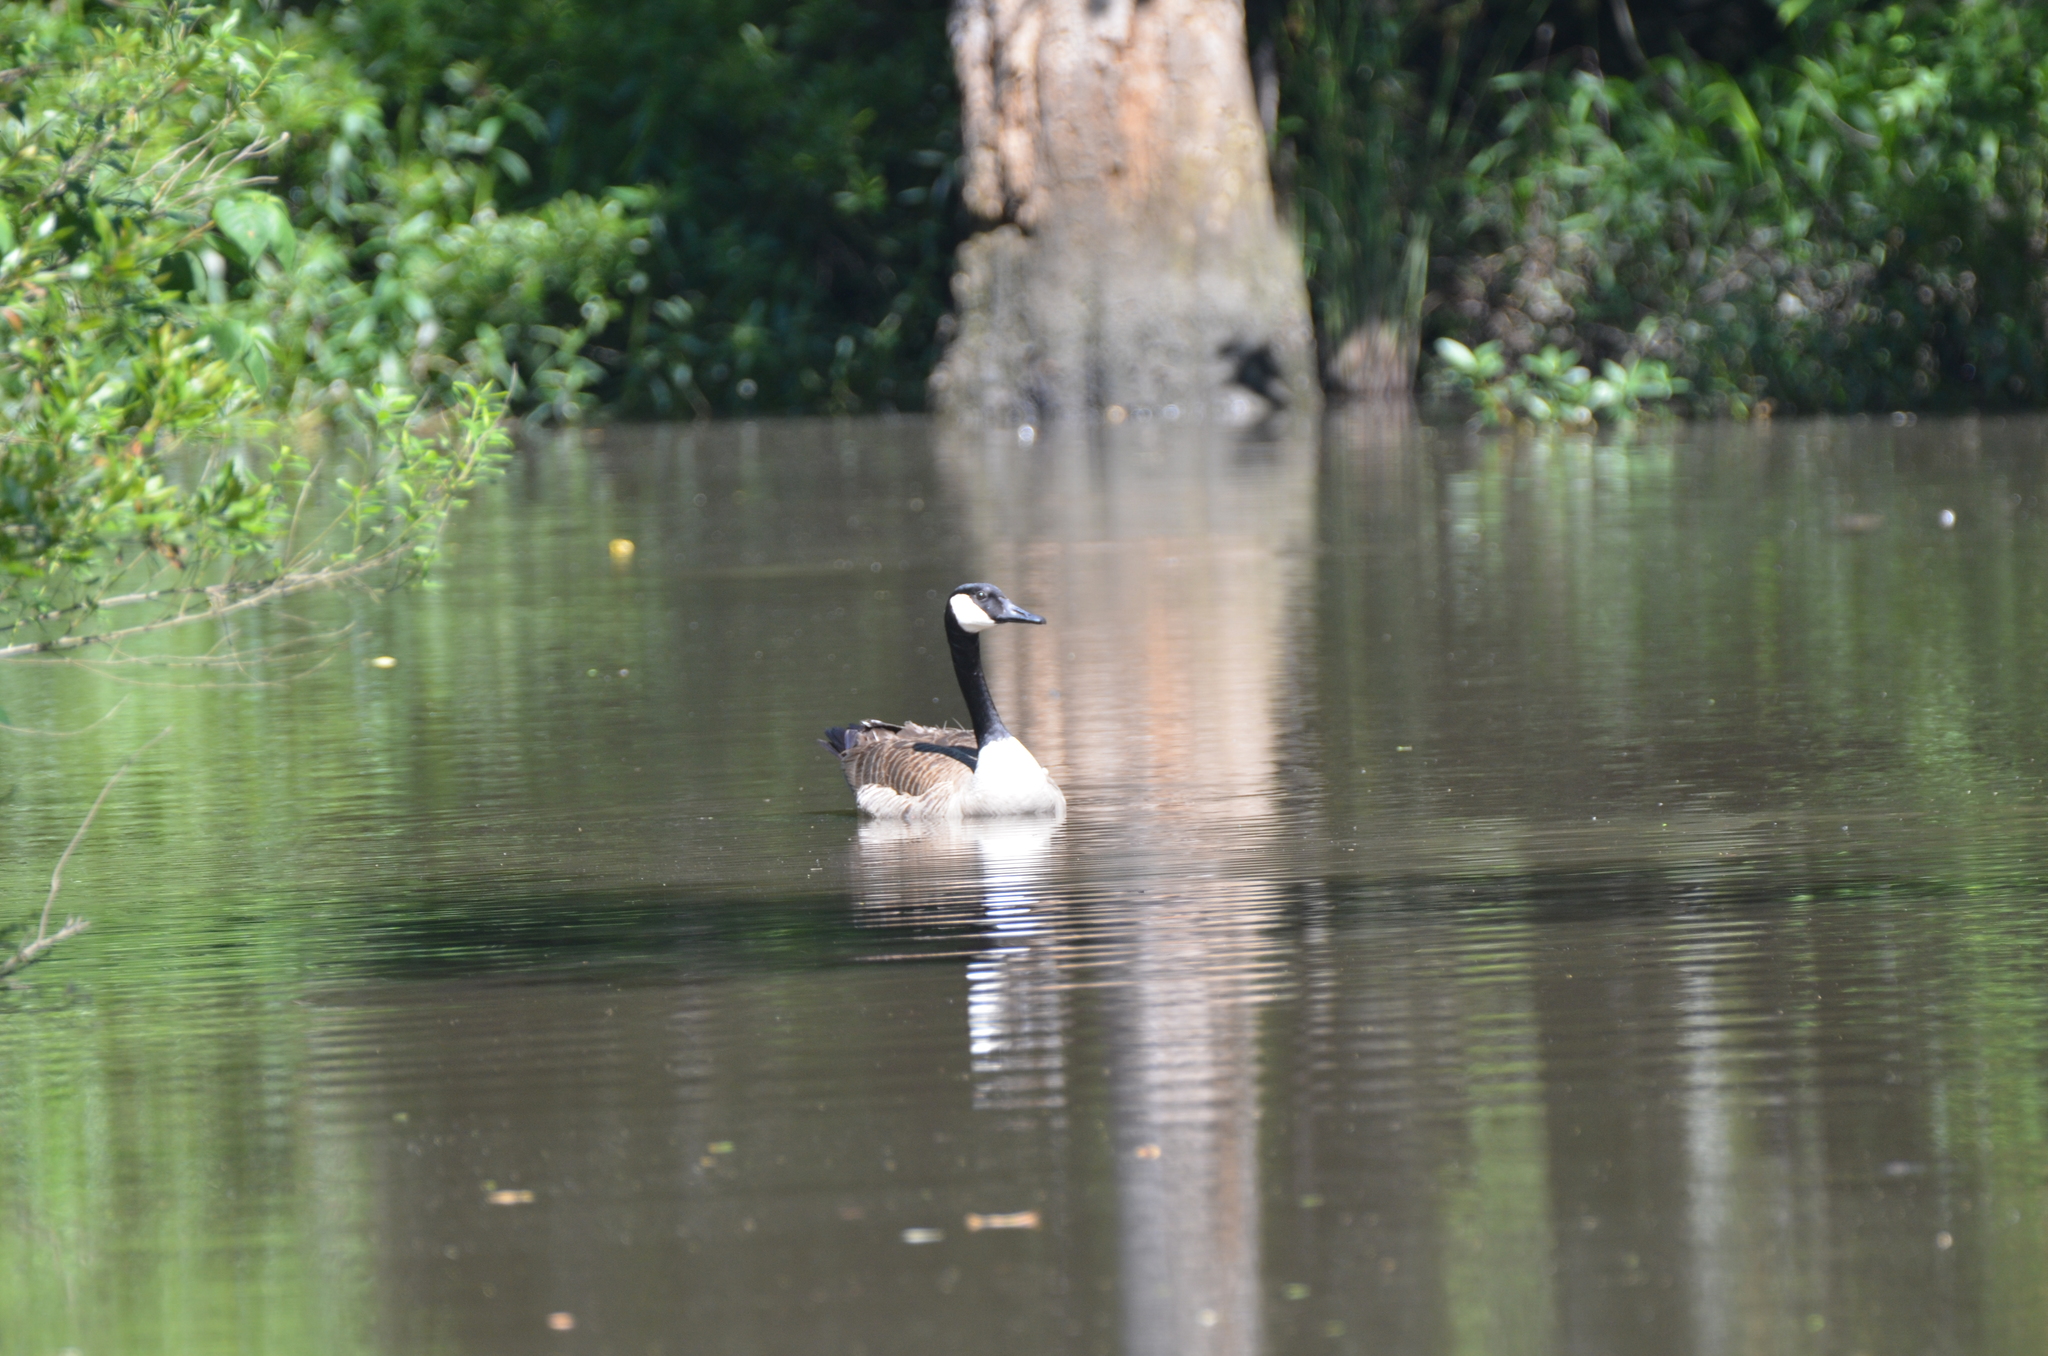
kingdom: Animalia
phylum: Chordata
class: Aves
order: Anseriformes
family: Anatidae
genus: Branta
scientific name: Branta canadensis
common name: Canada goose
